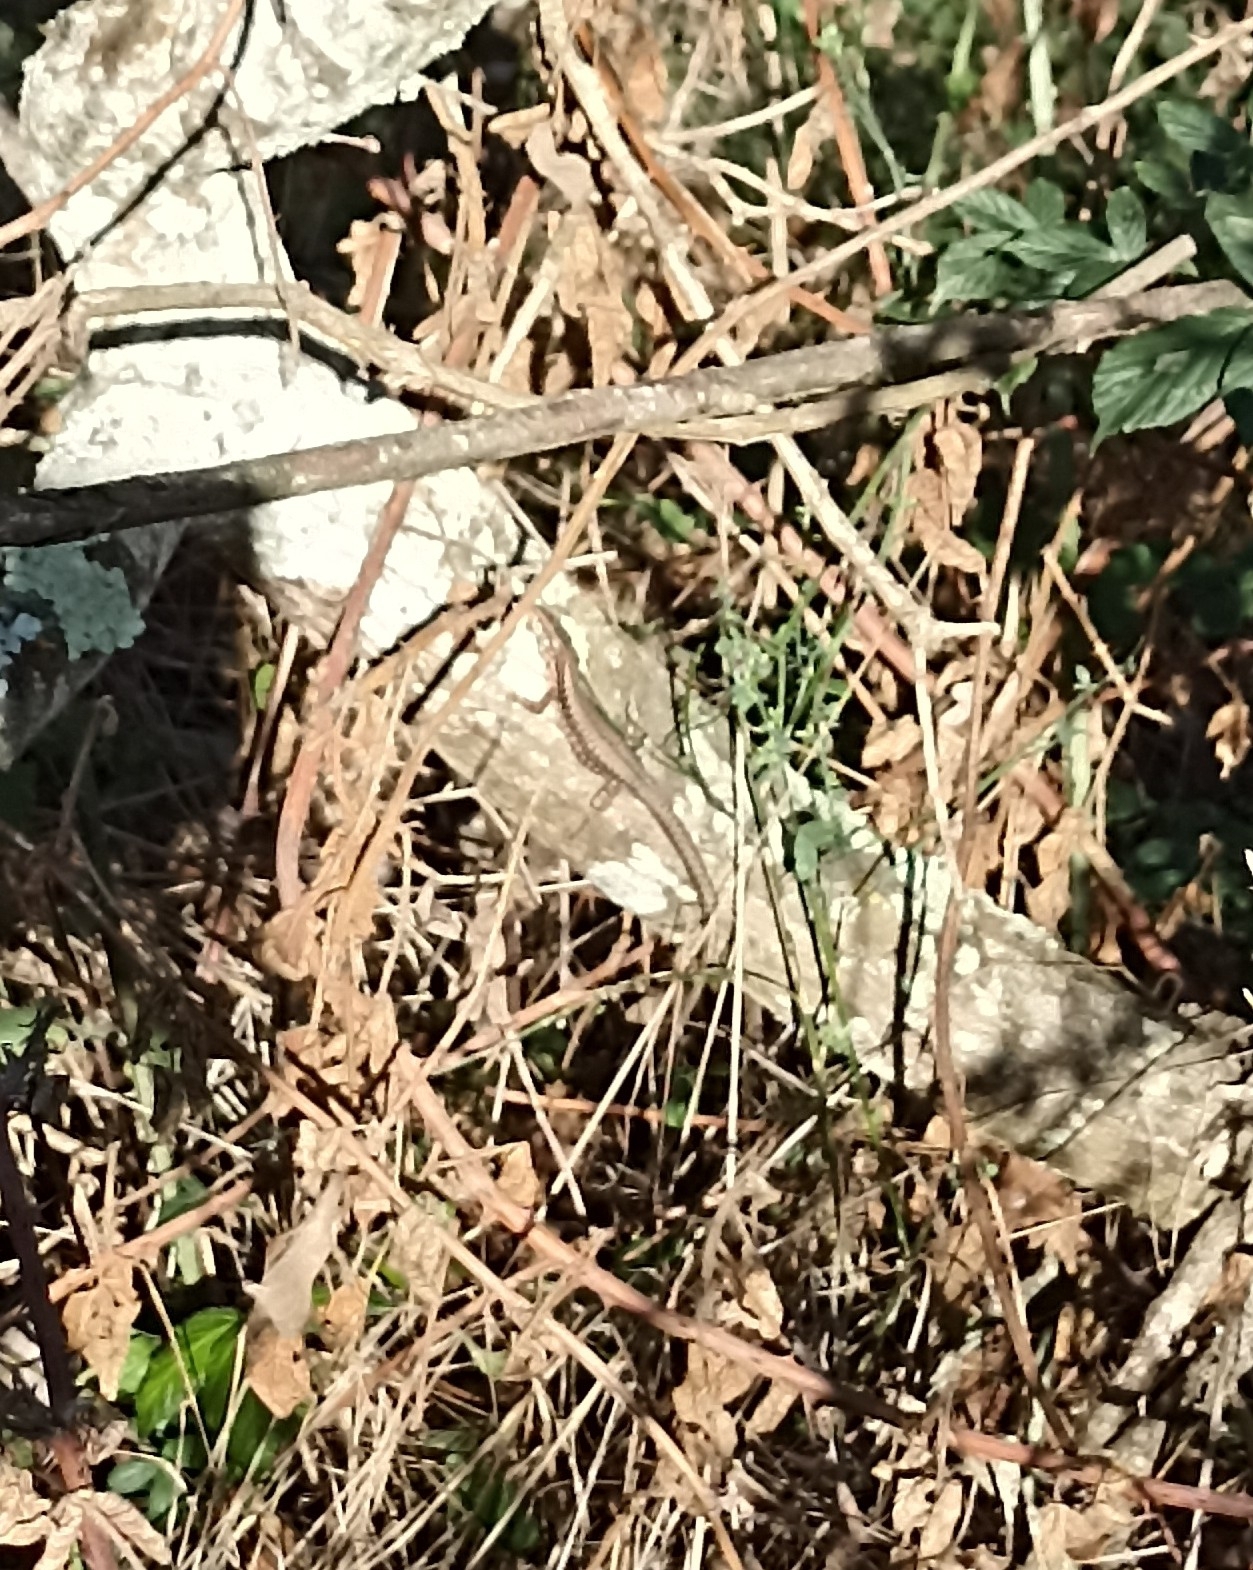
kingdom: Animalia
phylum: Chordata
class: Squamata
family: Lacertidae
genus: Podarcis
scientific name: Podarcis muralis
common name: Common wall lizard
